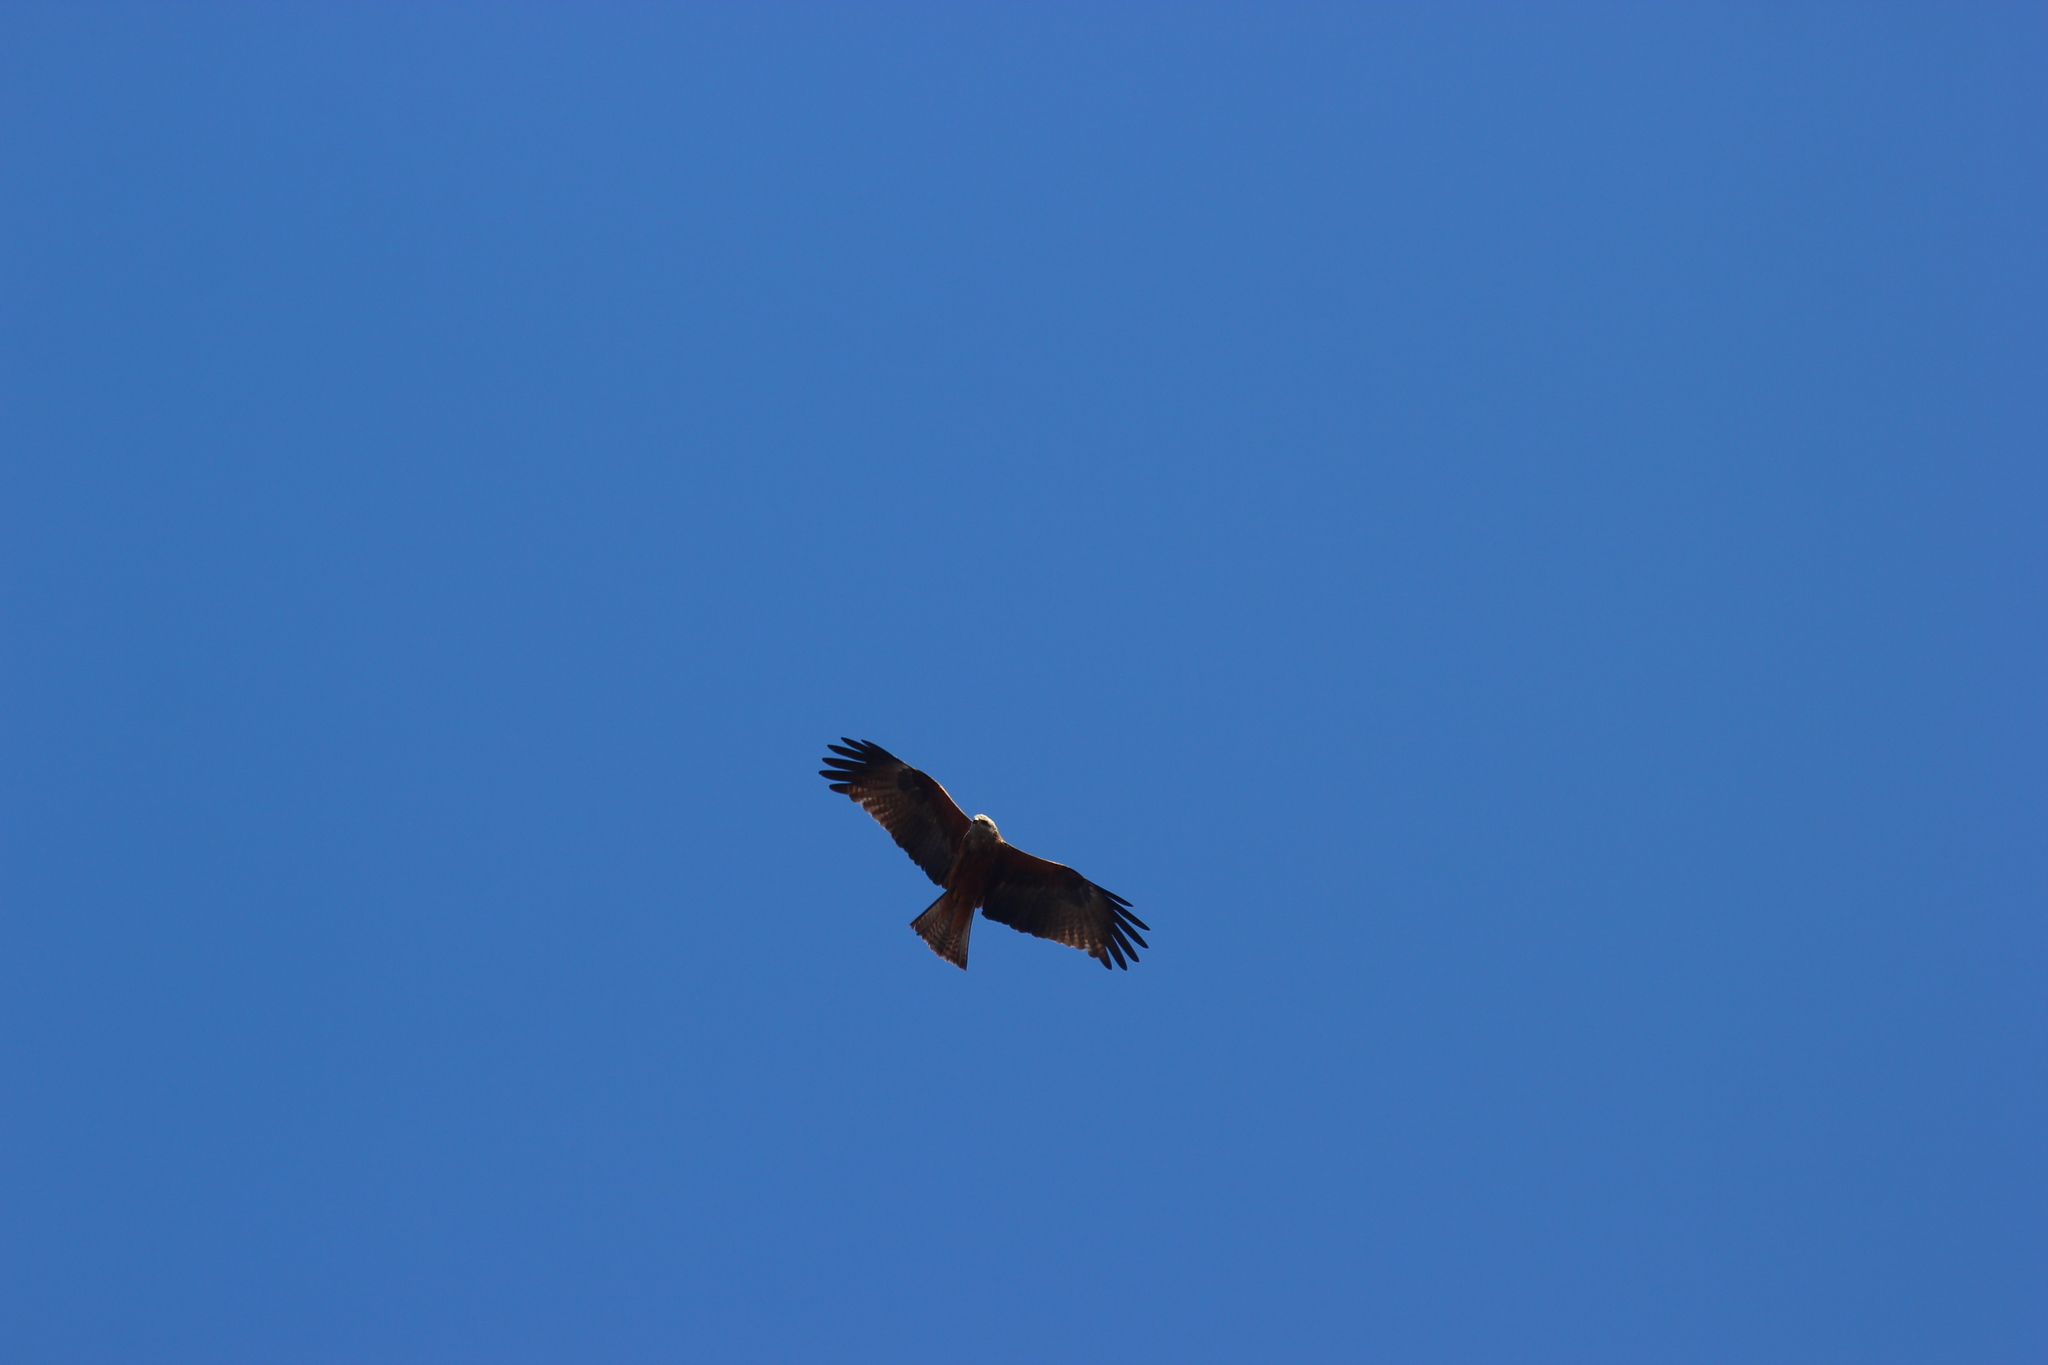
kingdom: Animalia
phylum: Chordata
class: Aves
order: Accipitriformes
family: Accipitridae
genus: Milvus
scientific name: Milvus migrans
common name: Black kite
